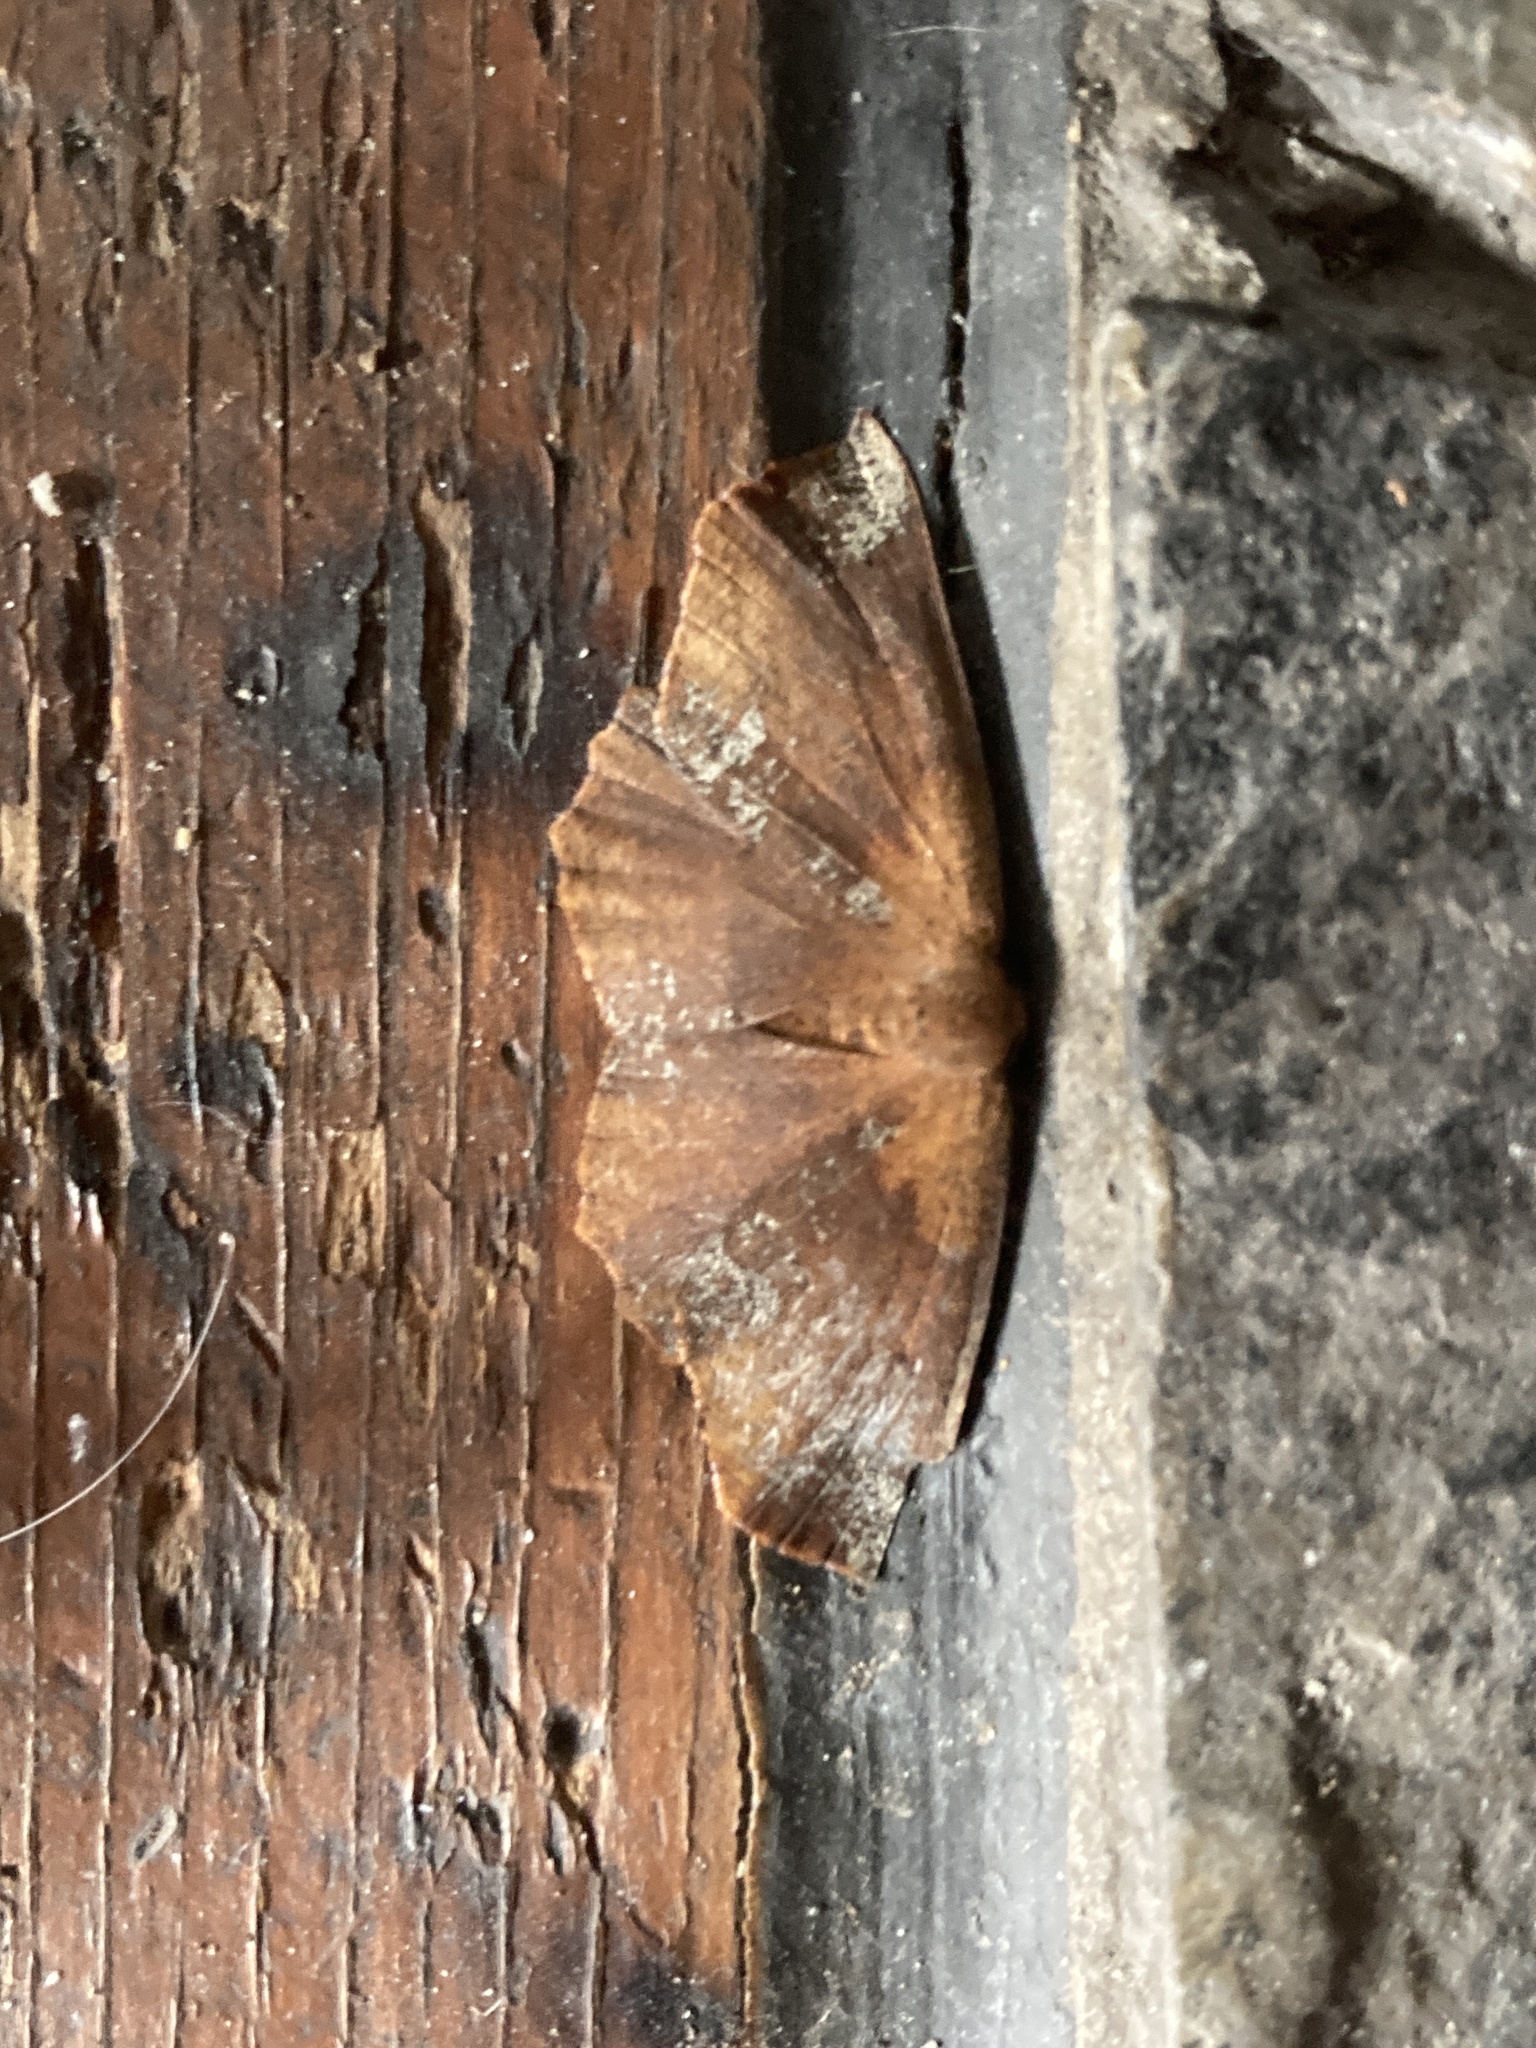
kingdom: Animalia
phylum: Arthropoda
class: Insecta
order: Lepidoptera
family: Geometridae
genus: Xyridacma
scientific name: Xyridacma ustaria
